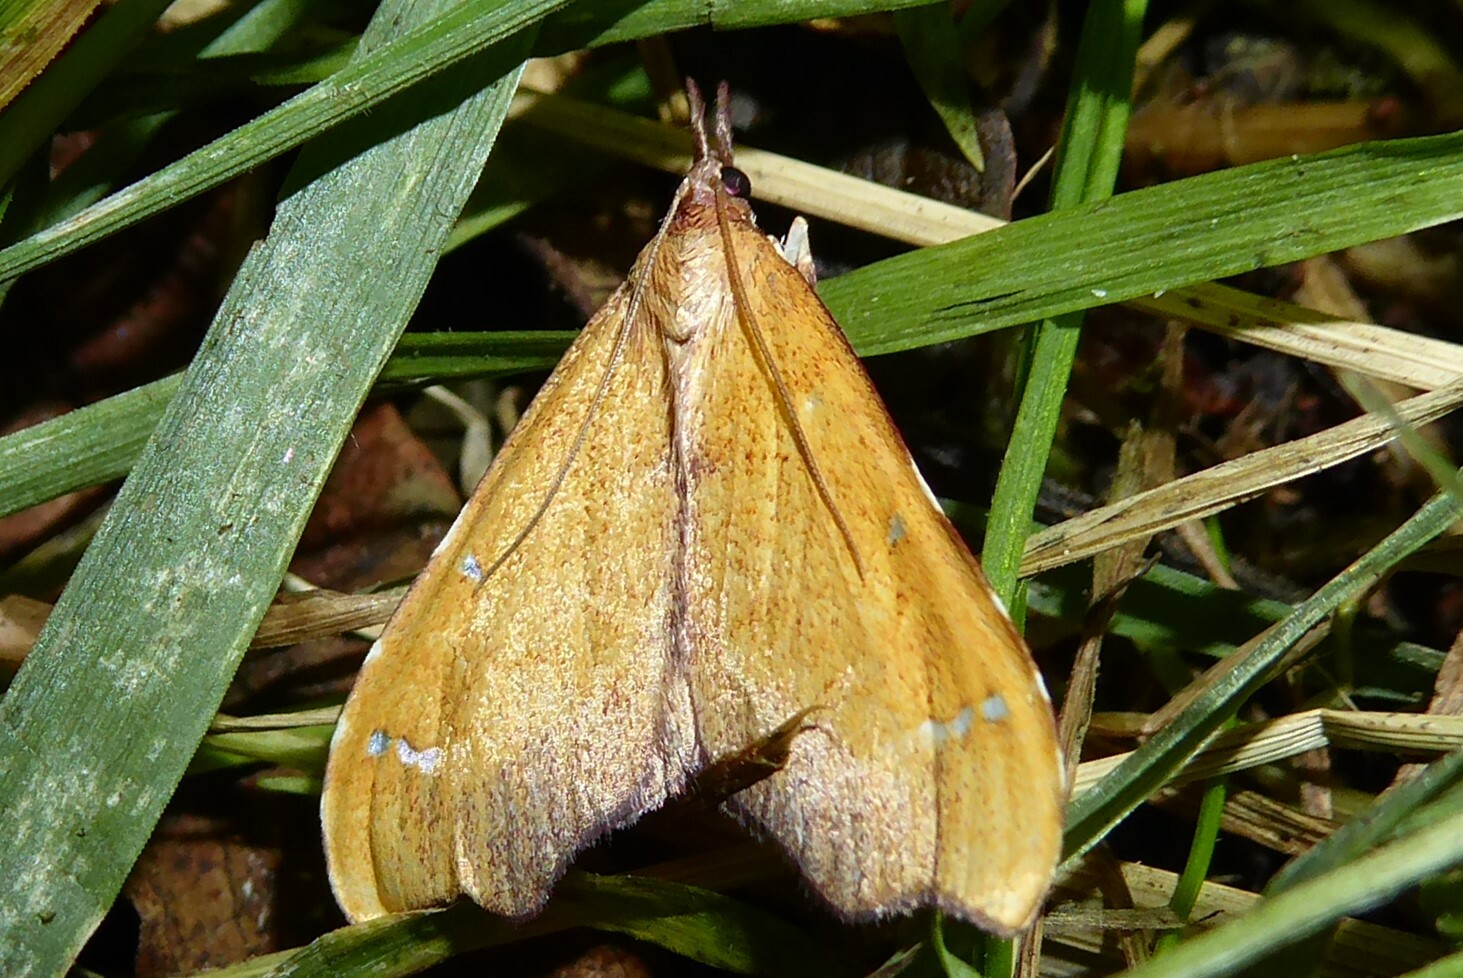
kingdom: Animalia
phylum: Arthropoda
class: Insecta
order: Lepidoptera
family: Crambidae
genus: Deana
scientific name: Deana hybreasalis
